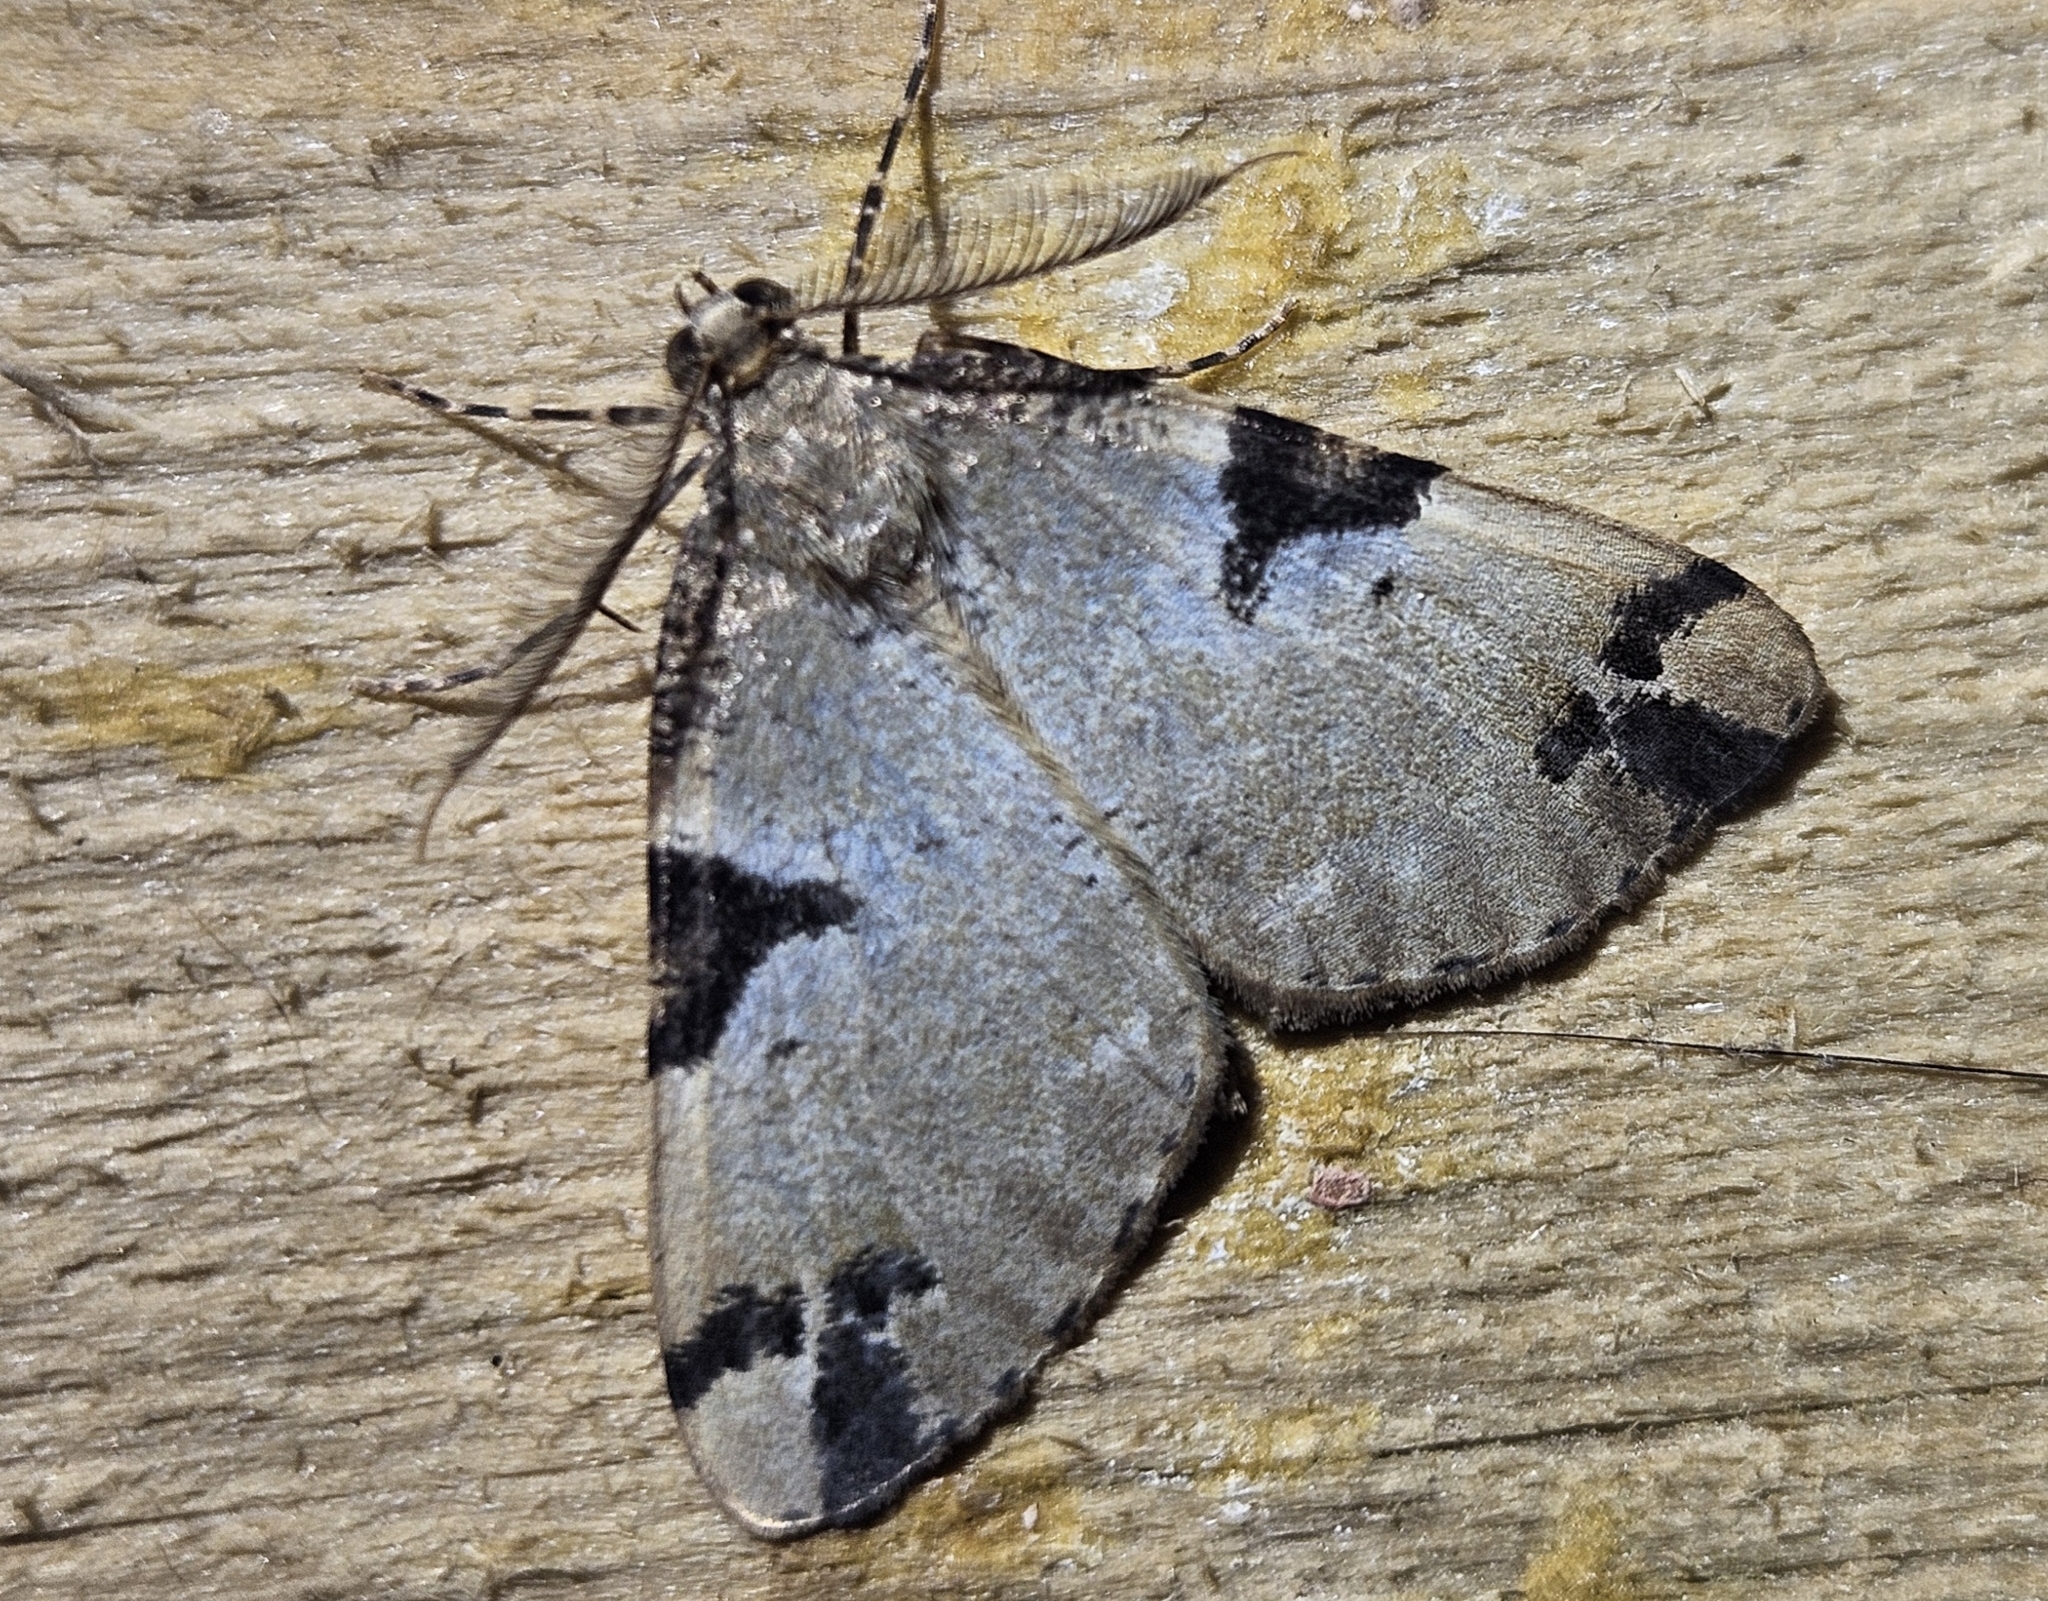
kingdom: Animalia
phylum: Arthropoda
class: Insecta
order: Lepidoptera
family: Geometridae
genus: Pseudocoremia
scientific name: Pseudocoremia flava
